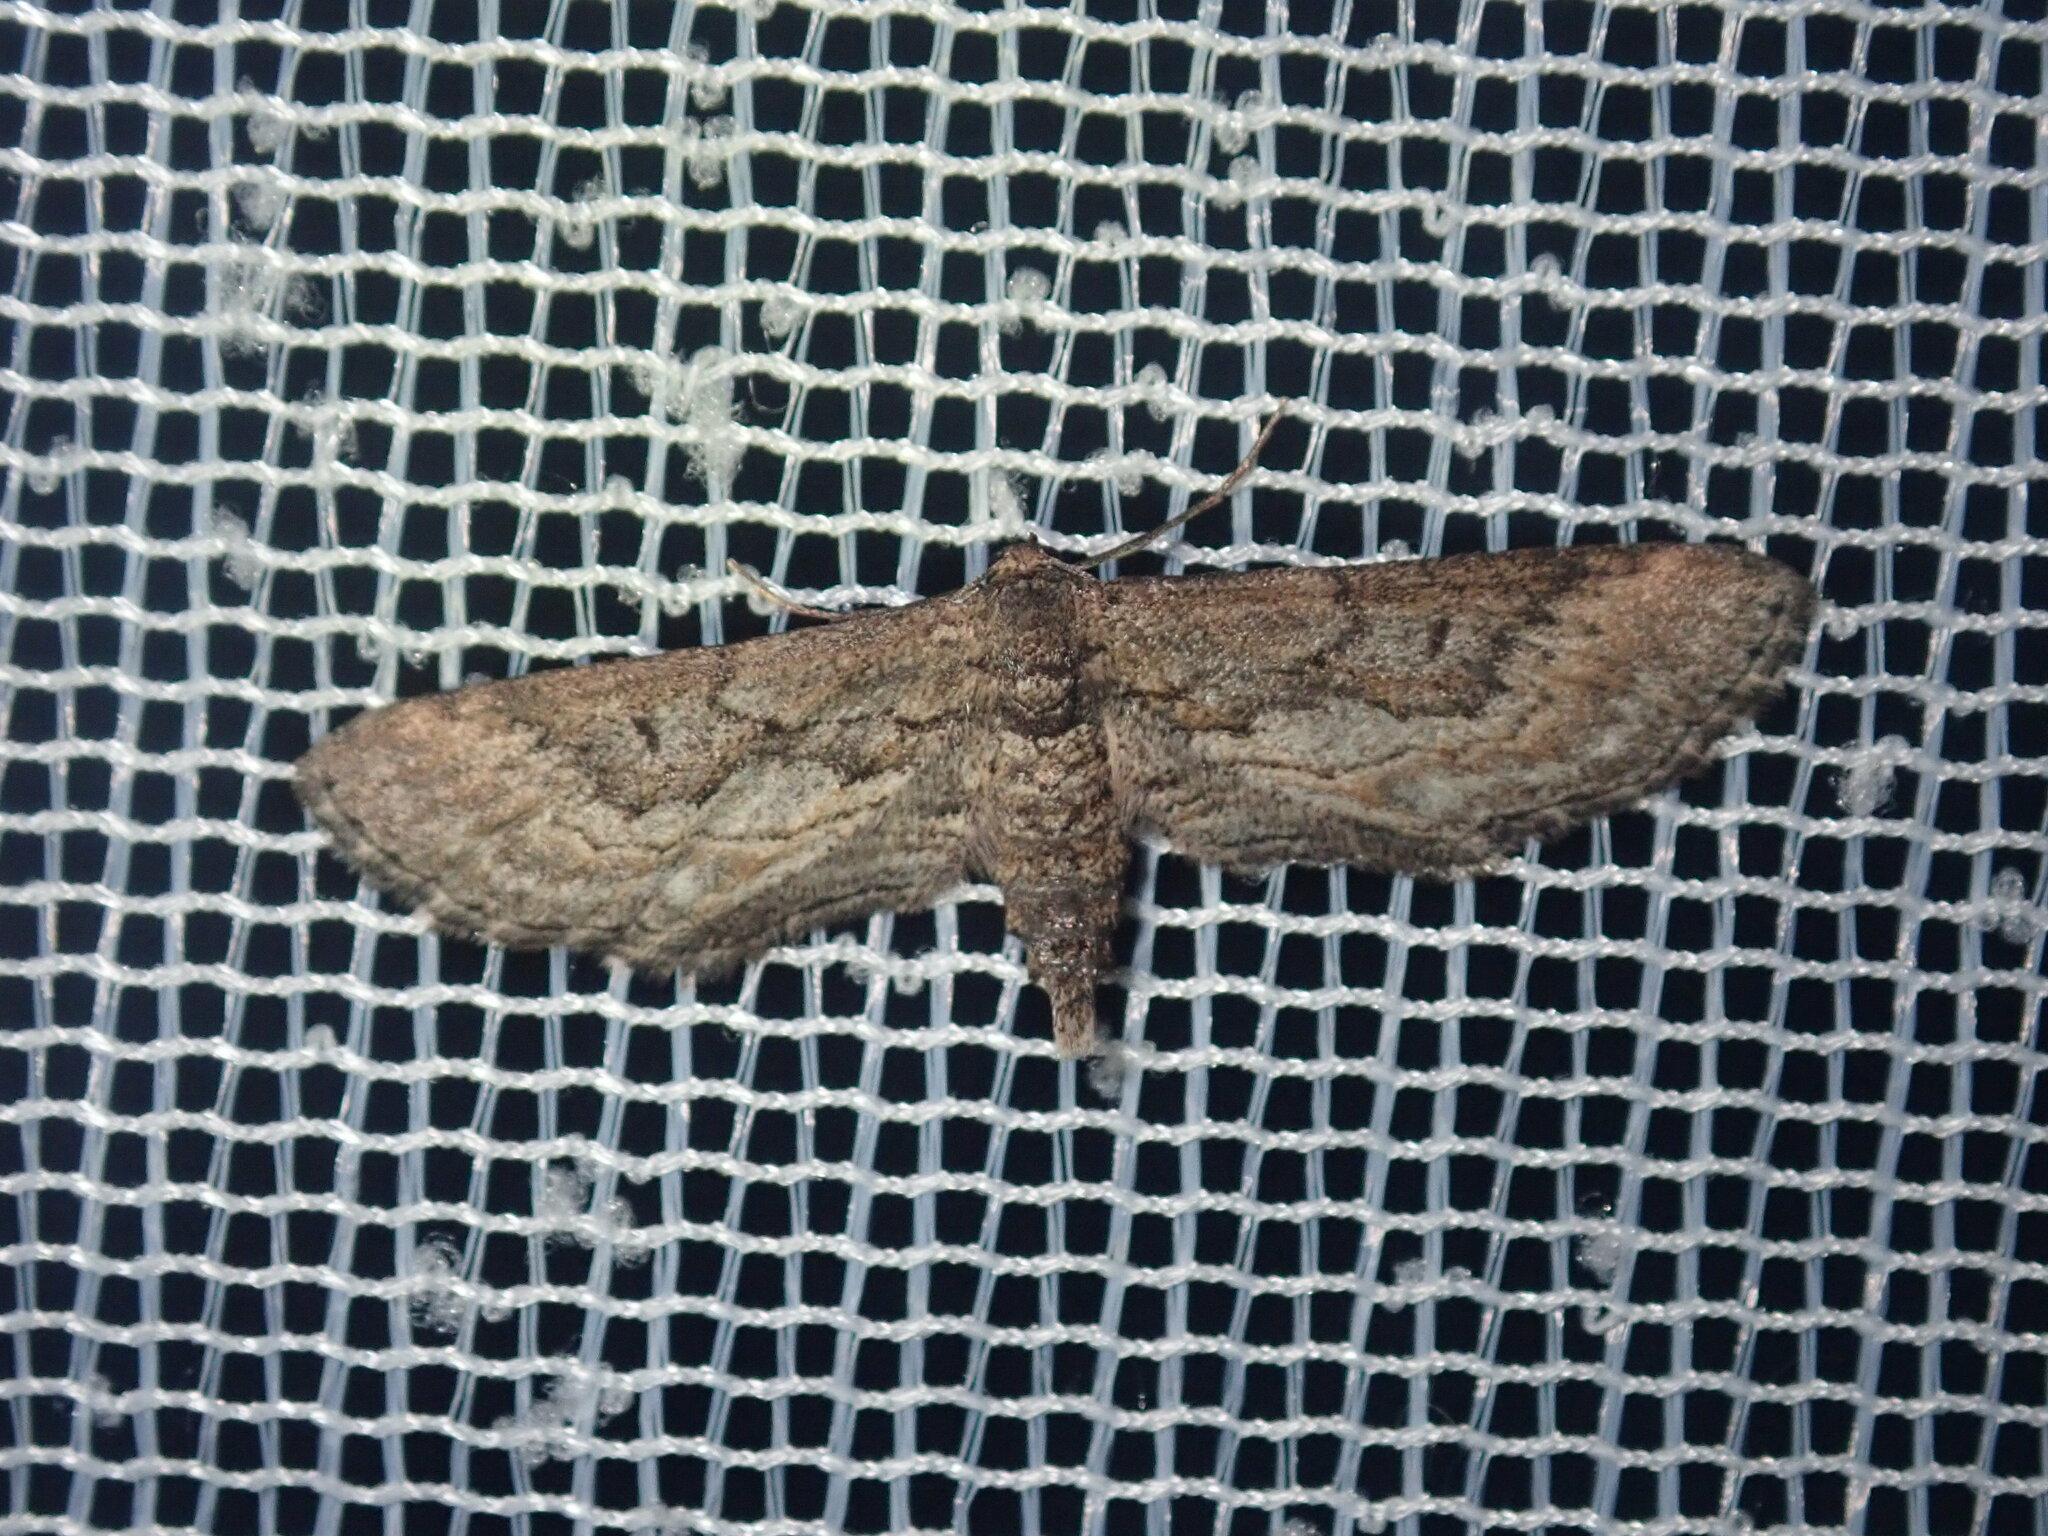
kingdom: Animalia
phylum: Arthropoda
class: Insecta
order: Lepidoptera
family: Geometridae
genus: Scopula
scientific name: Scopula episcia
